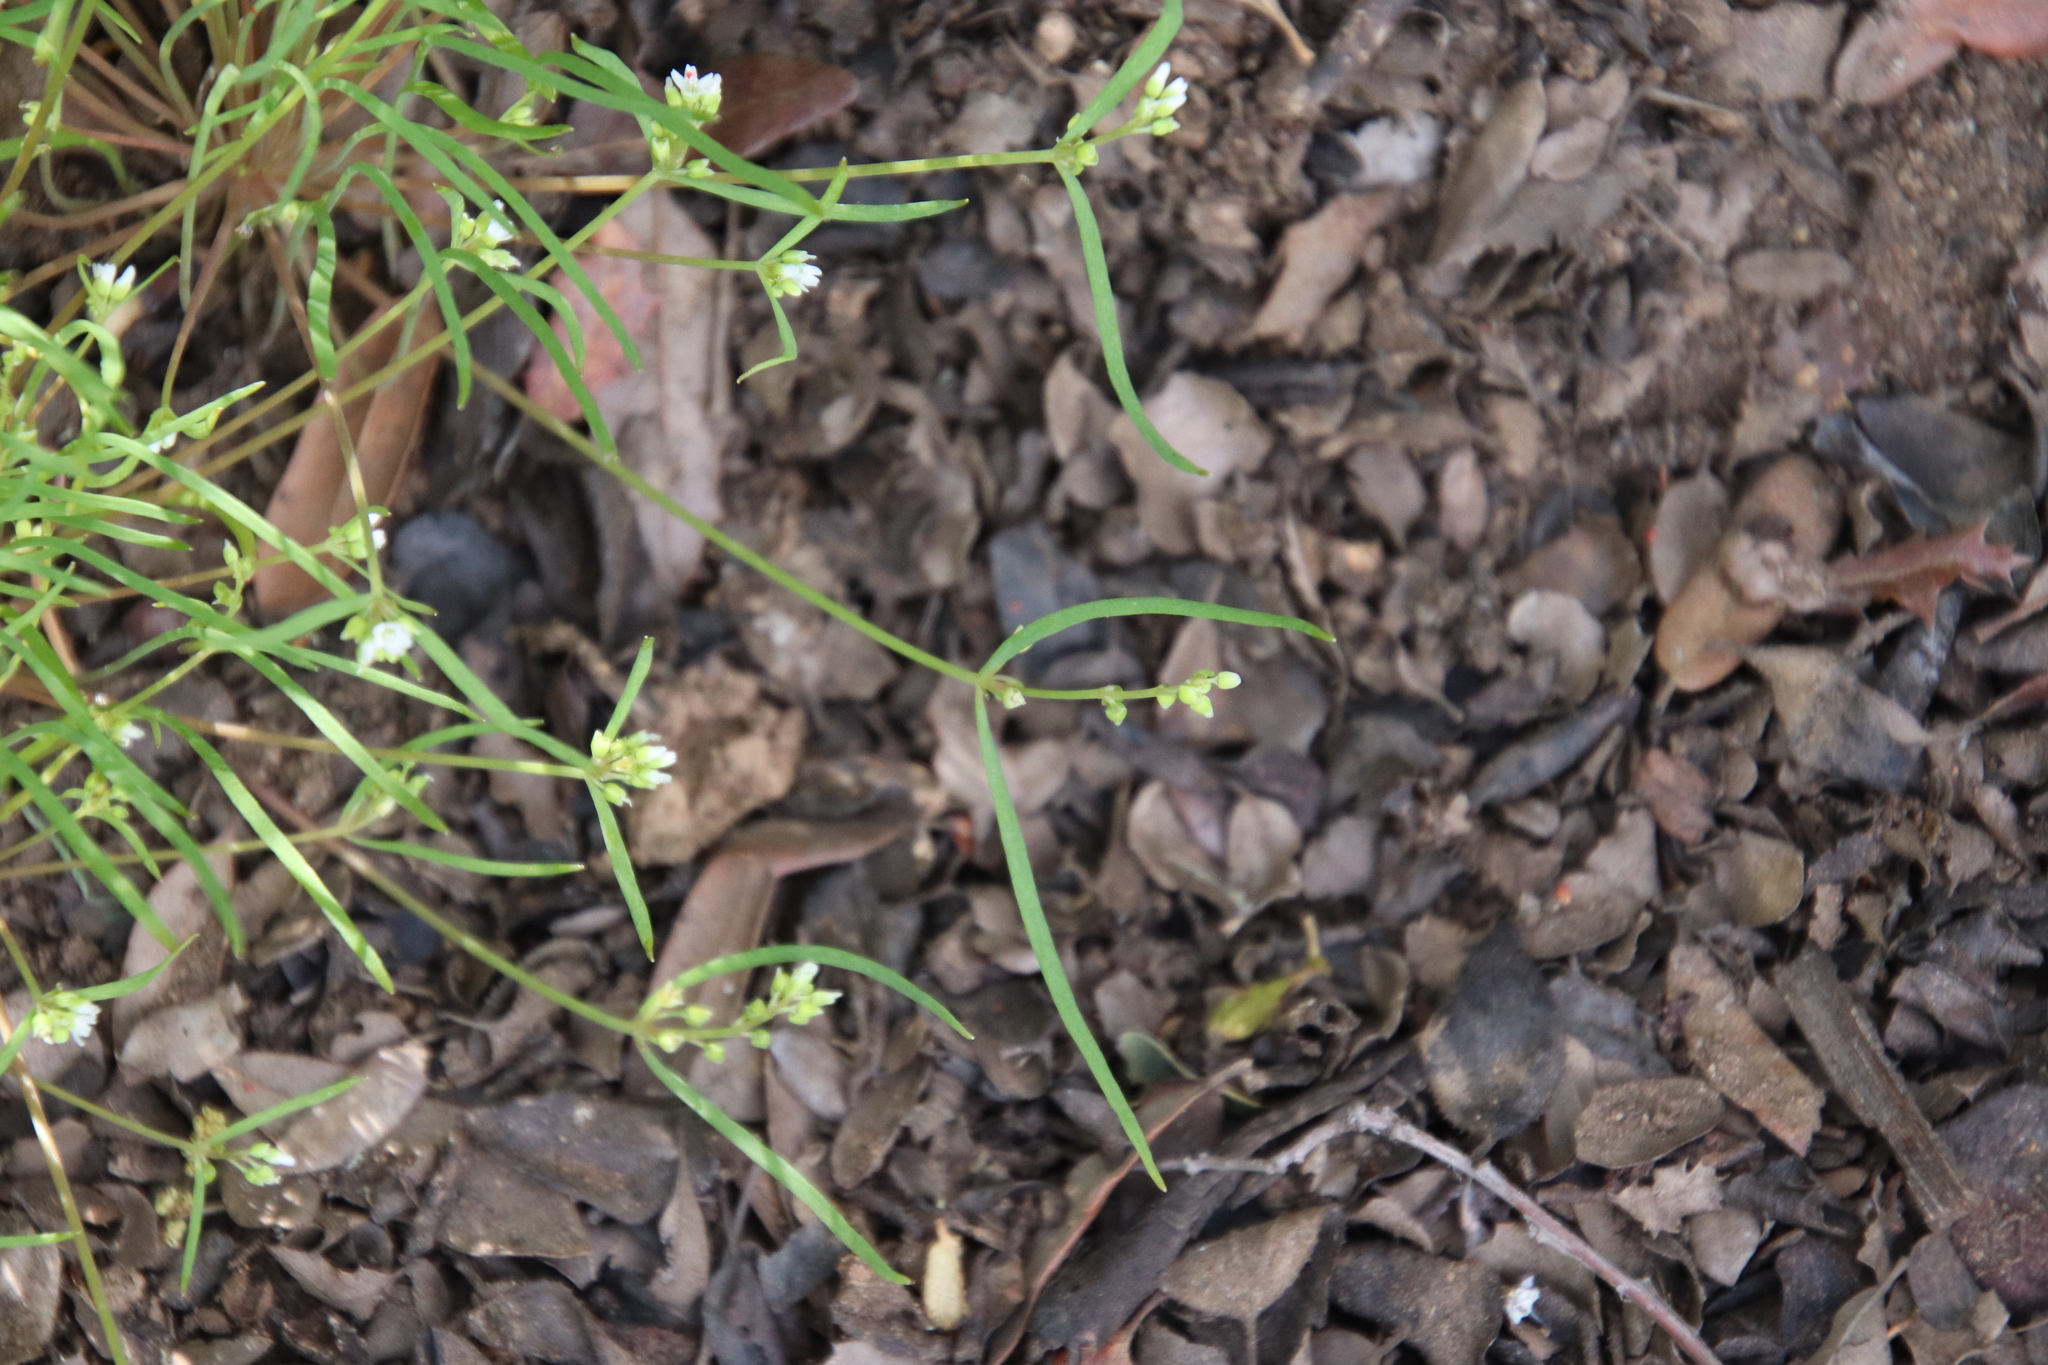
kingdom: Plantae
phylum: Tracheophyta
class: Magnoliopsida
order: Caryophyllales
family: Montiaceae
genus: Claytonia
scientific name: Claytonia parviflora
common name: Indian-lettuce
